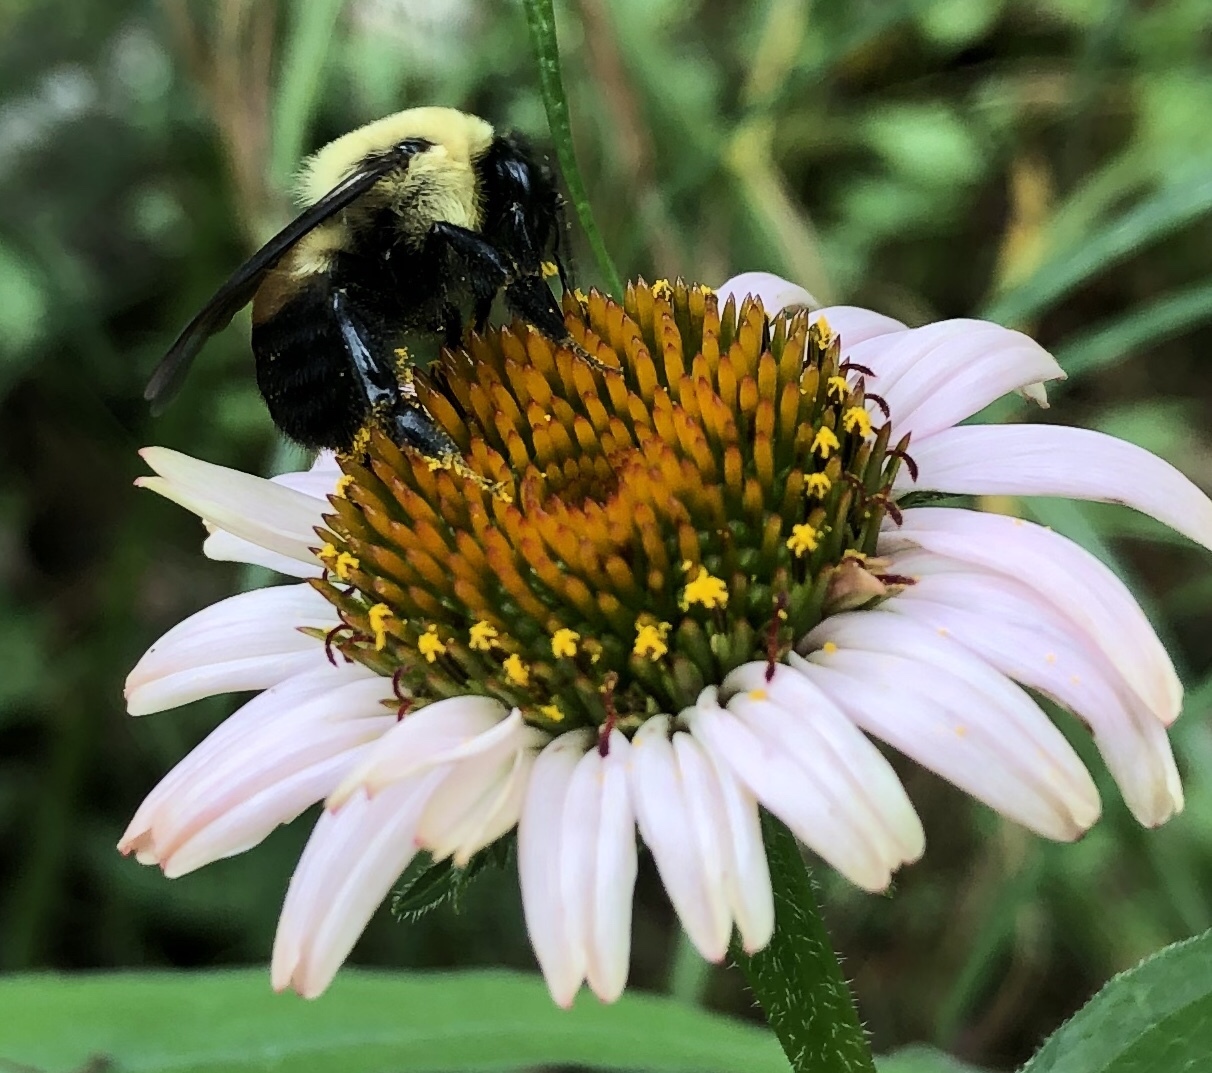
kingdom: Animalia
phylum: Arthropoda
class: Insecta
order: Hymenoptera
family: Apidae
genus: Bombus
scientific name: Bombus griseocollis
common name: Brown-belted bumble bee
